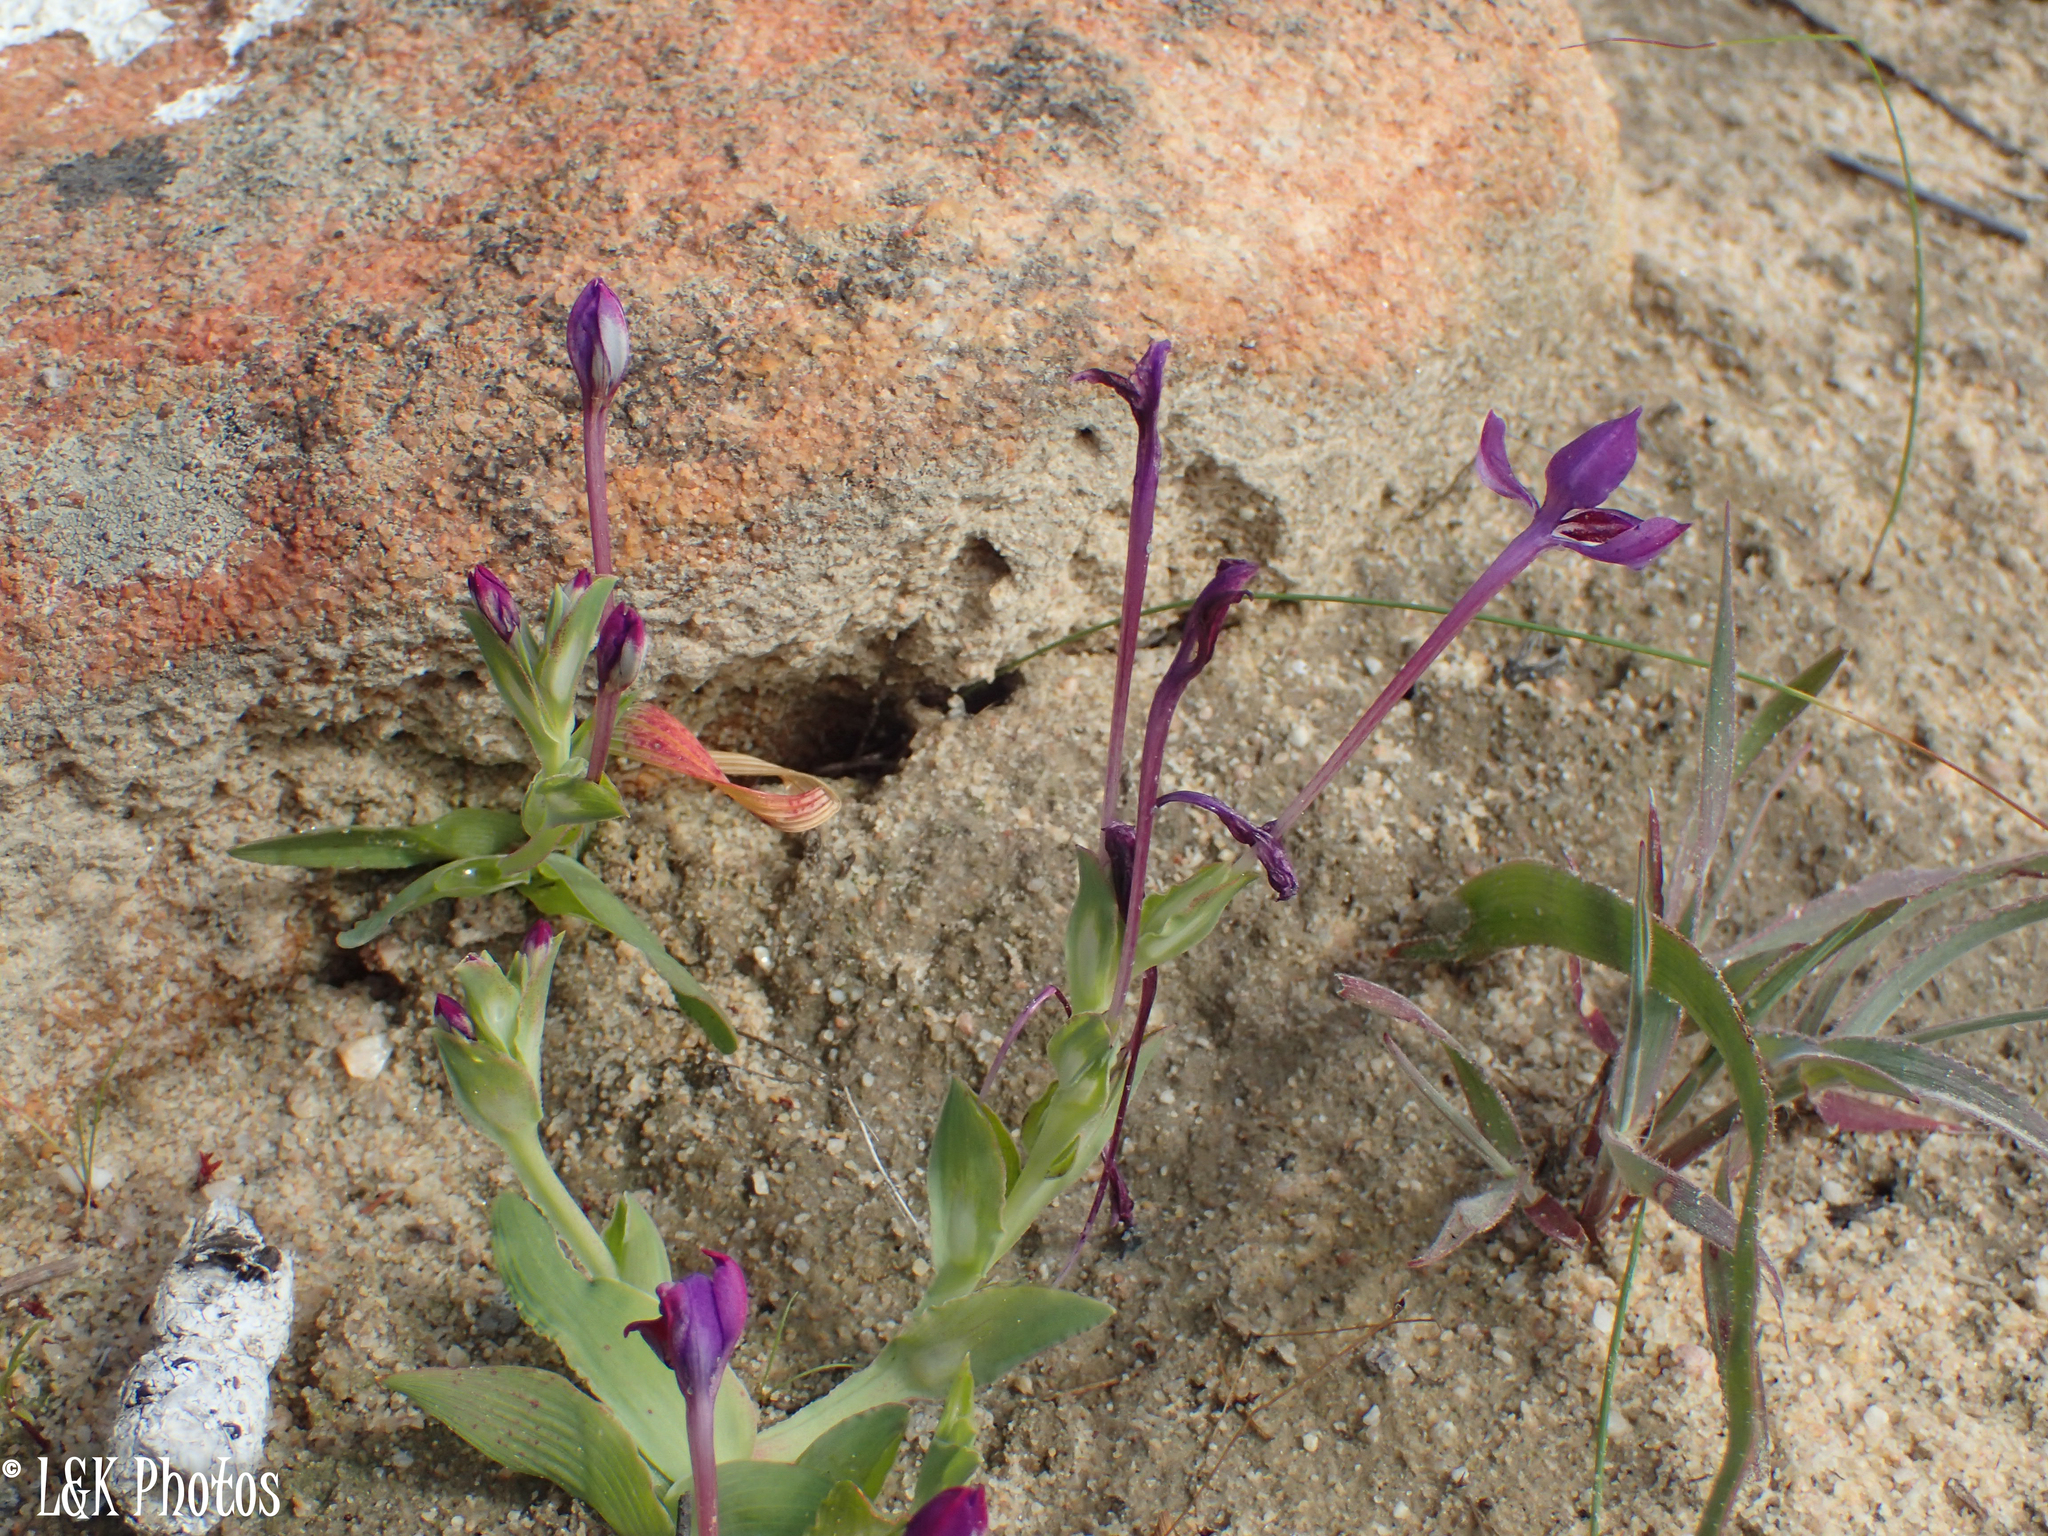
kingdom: Plantae
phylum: Tracheophyta
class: Liliopsida
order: Asparagales
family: Iridaceae
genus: Lapeirousia
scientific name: Lapeirousia jacquinii
